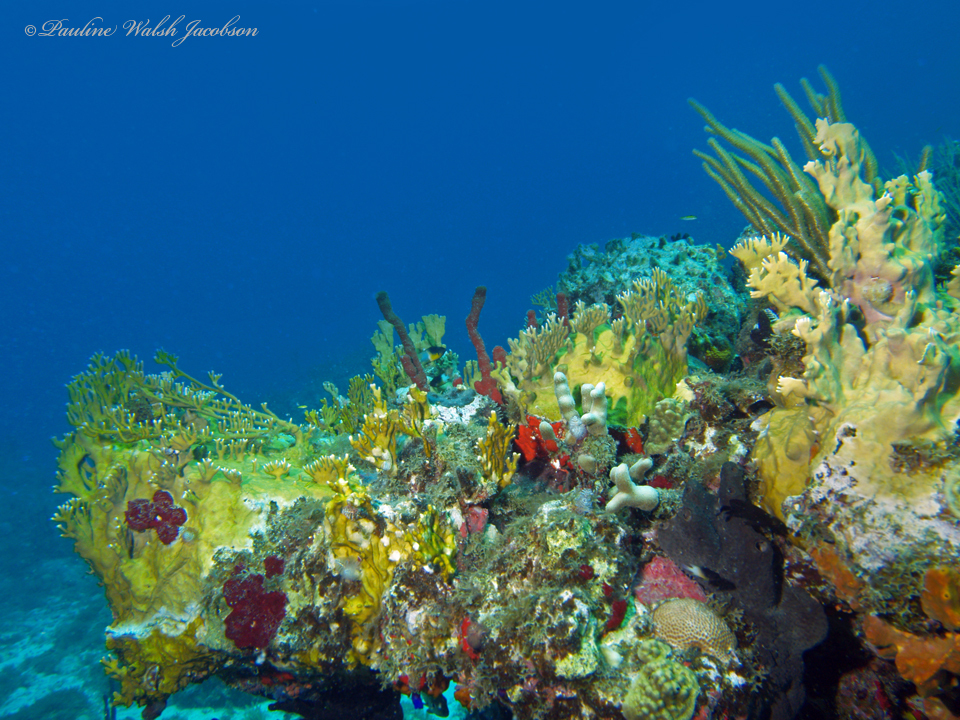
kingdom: Animalia
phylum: Cnidaria
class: Hydrozoa
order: Anthoathecata
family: Milleporidae
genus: Millepora
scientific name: Millepora alcicornis
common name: Branching fire coral
